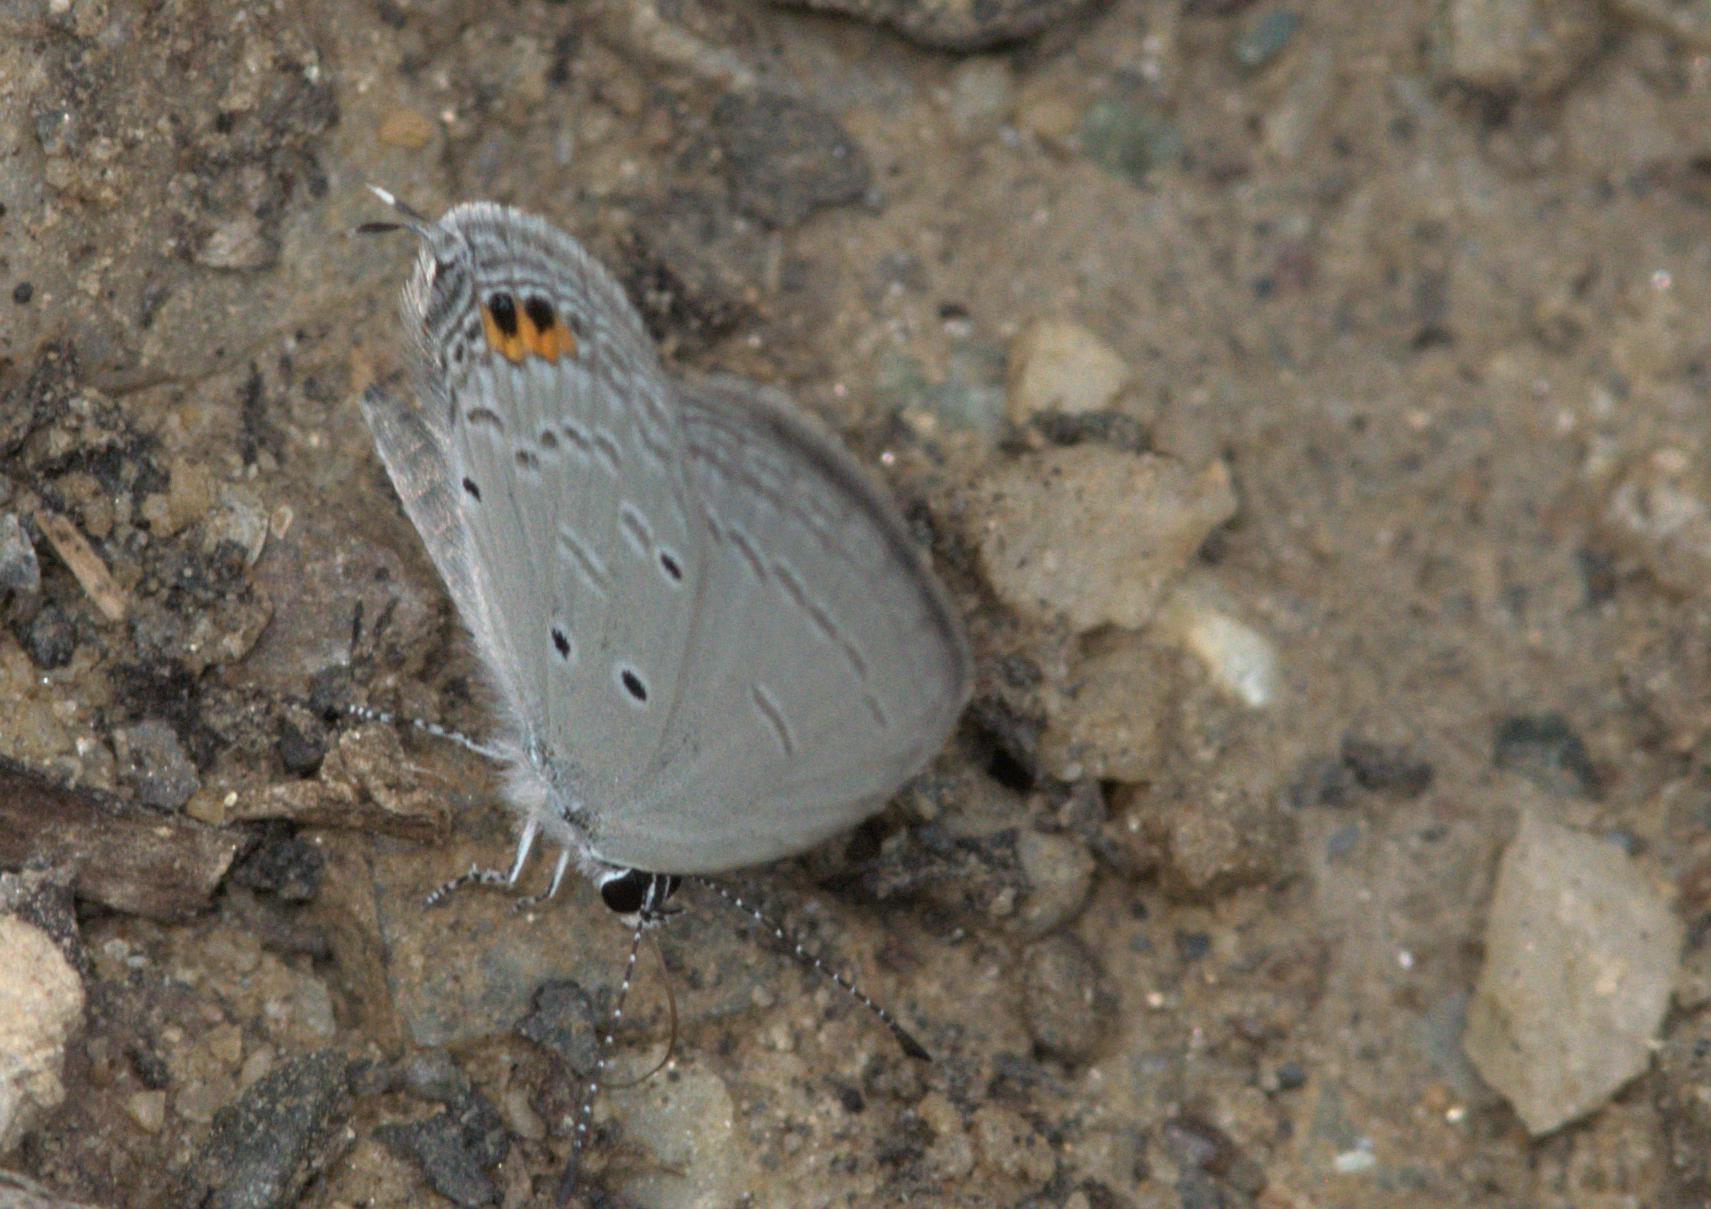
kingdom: Animalia
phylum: Arthropoda
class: Insecta
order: Lepidoptera
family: Lycaenidae
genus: Everes
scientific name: Everes lacturnus
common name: Orange-tipped pea-blue
